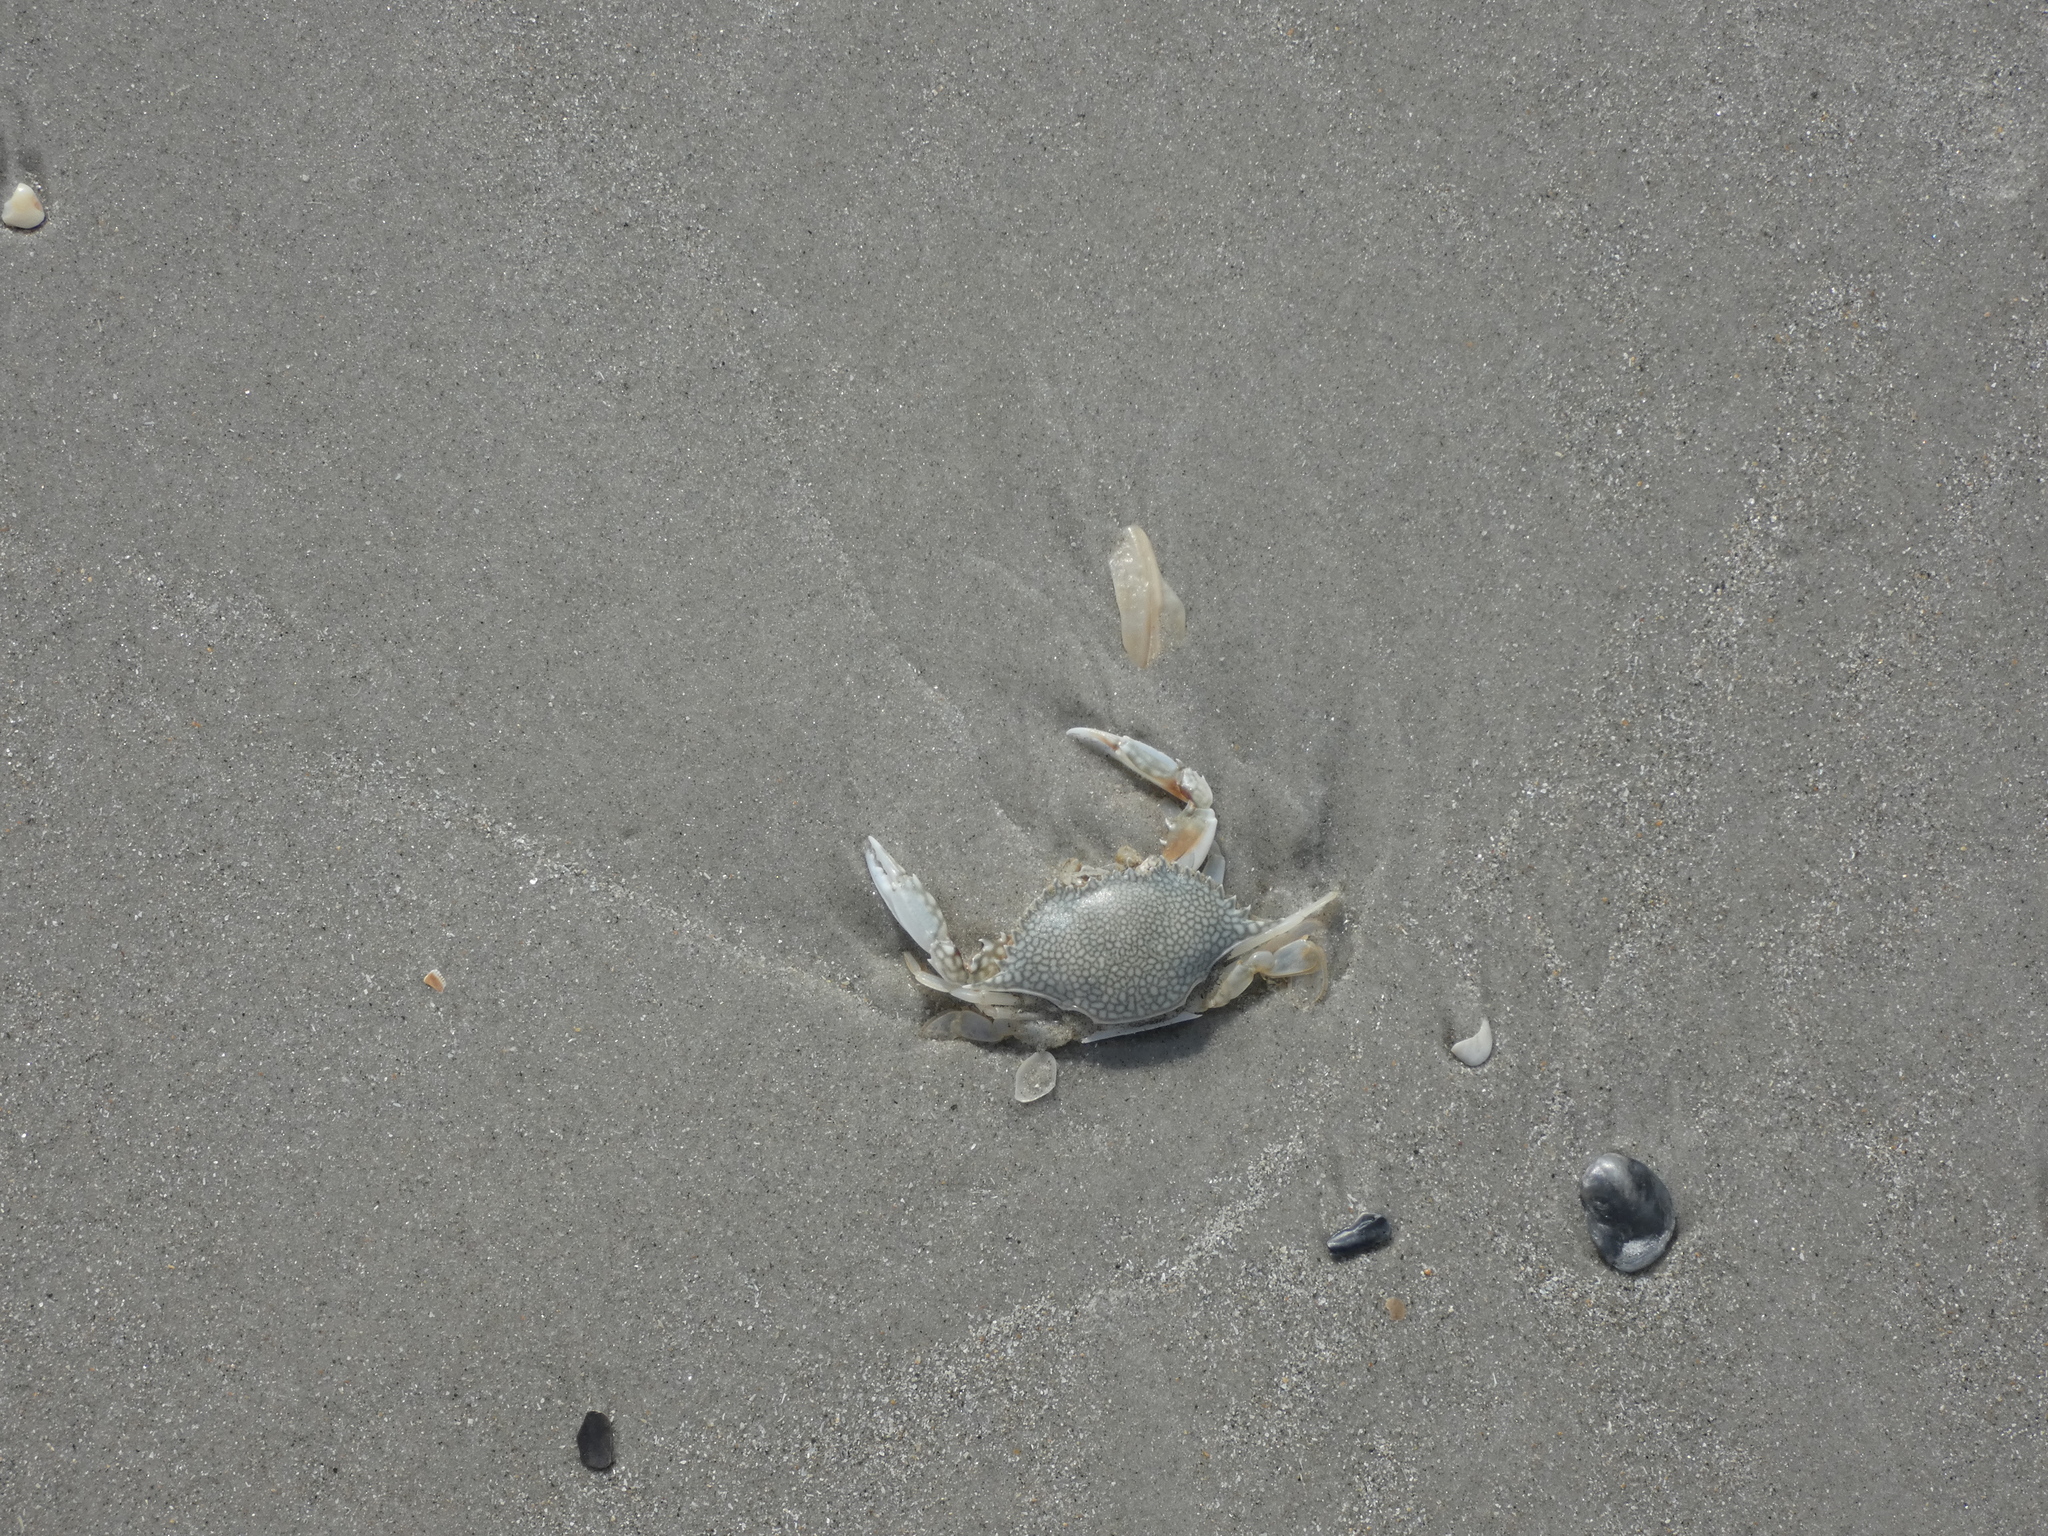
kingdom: Animalia
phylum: Arthropoda
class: Malacostraca
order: Decapoda
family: Portunidae
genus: Arenaeus
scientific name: Arenaeus cribrarius
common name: Speckled crab
